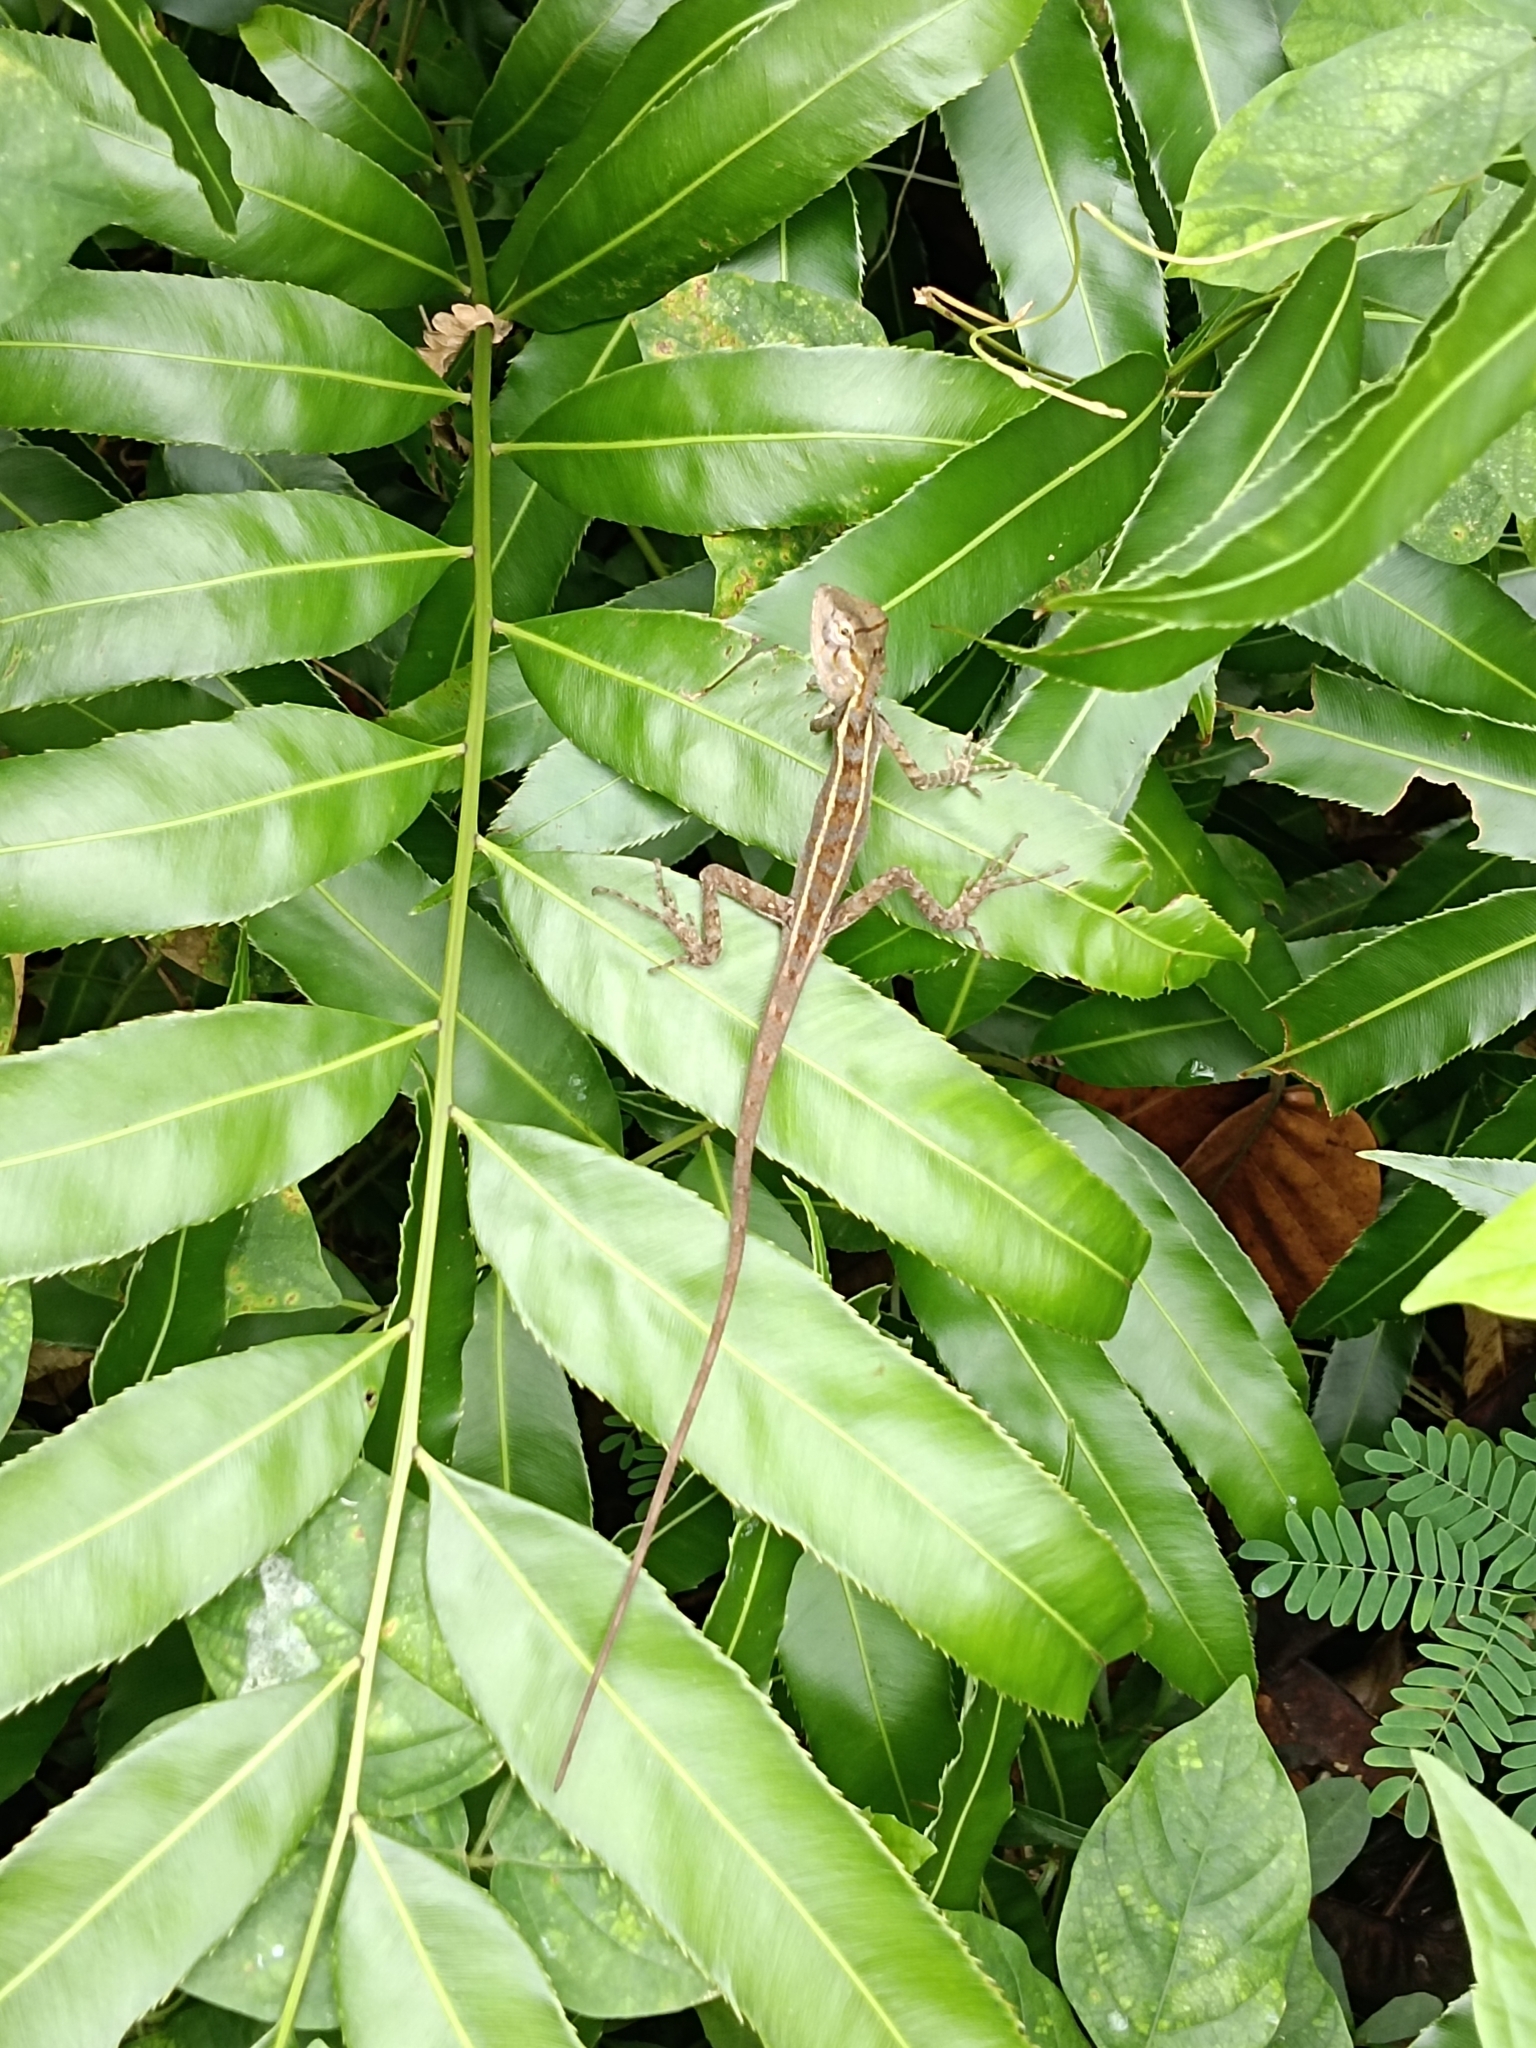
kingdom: Animalia
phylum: Chordata
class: Squamata
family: Agamidae
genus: Calotes
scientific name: Calotes versicolor
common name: Oriental garden lizard
